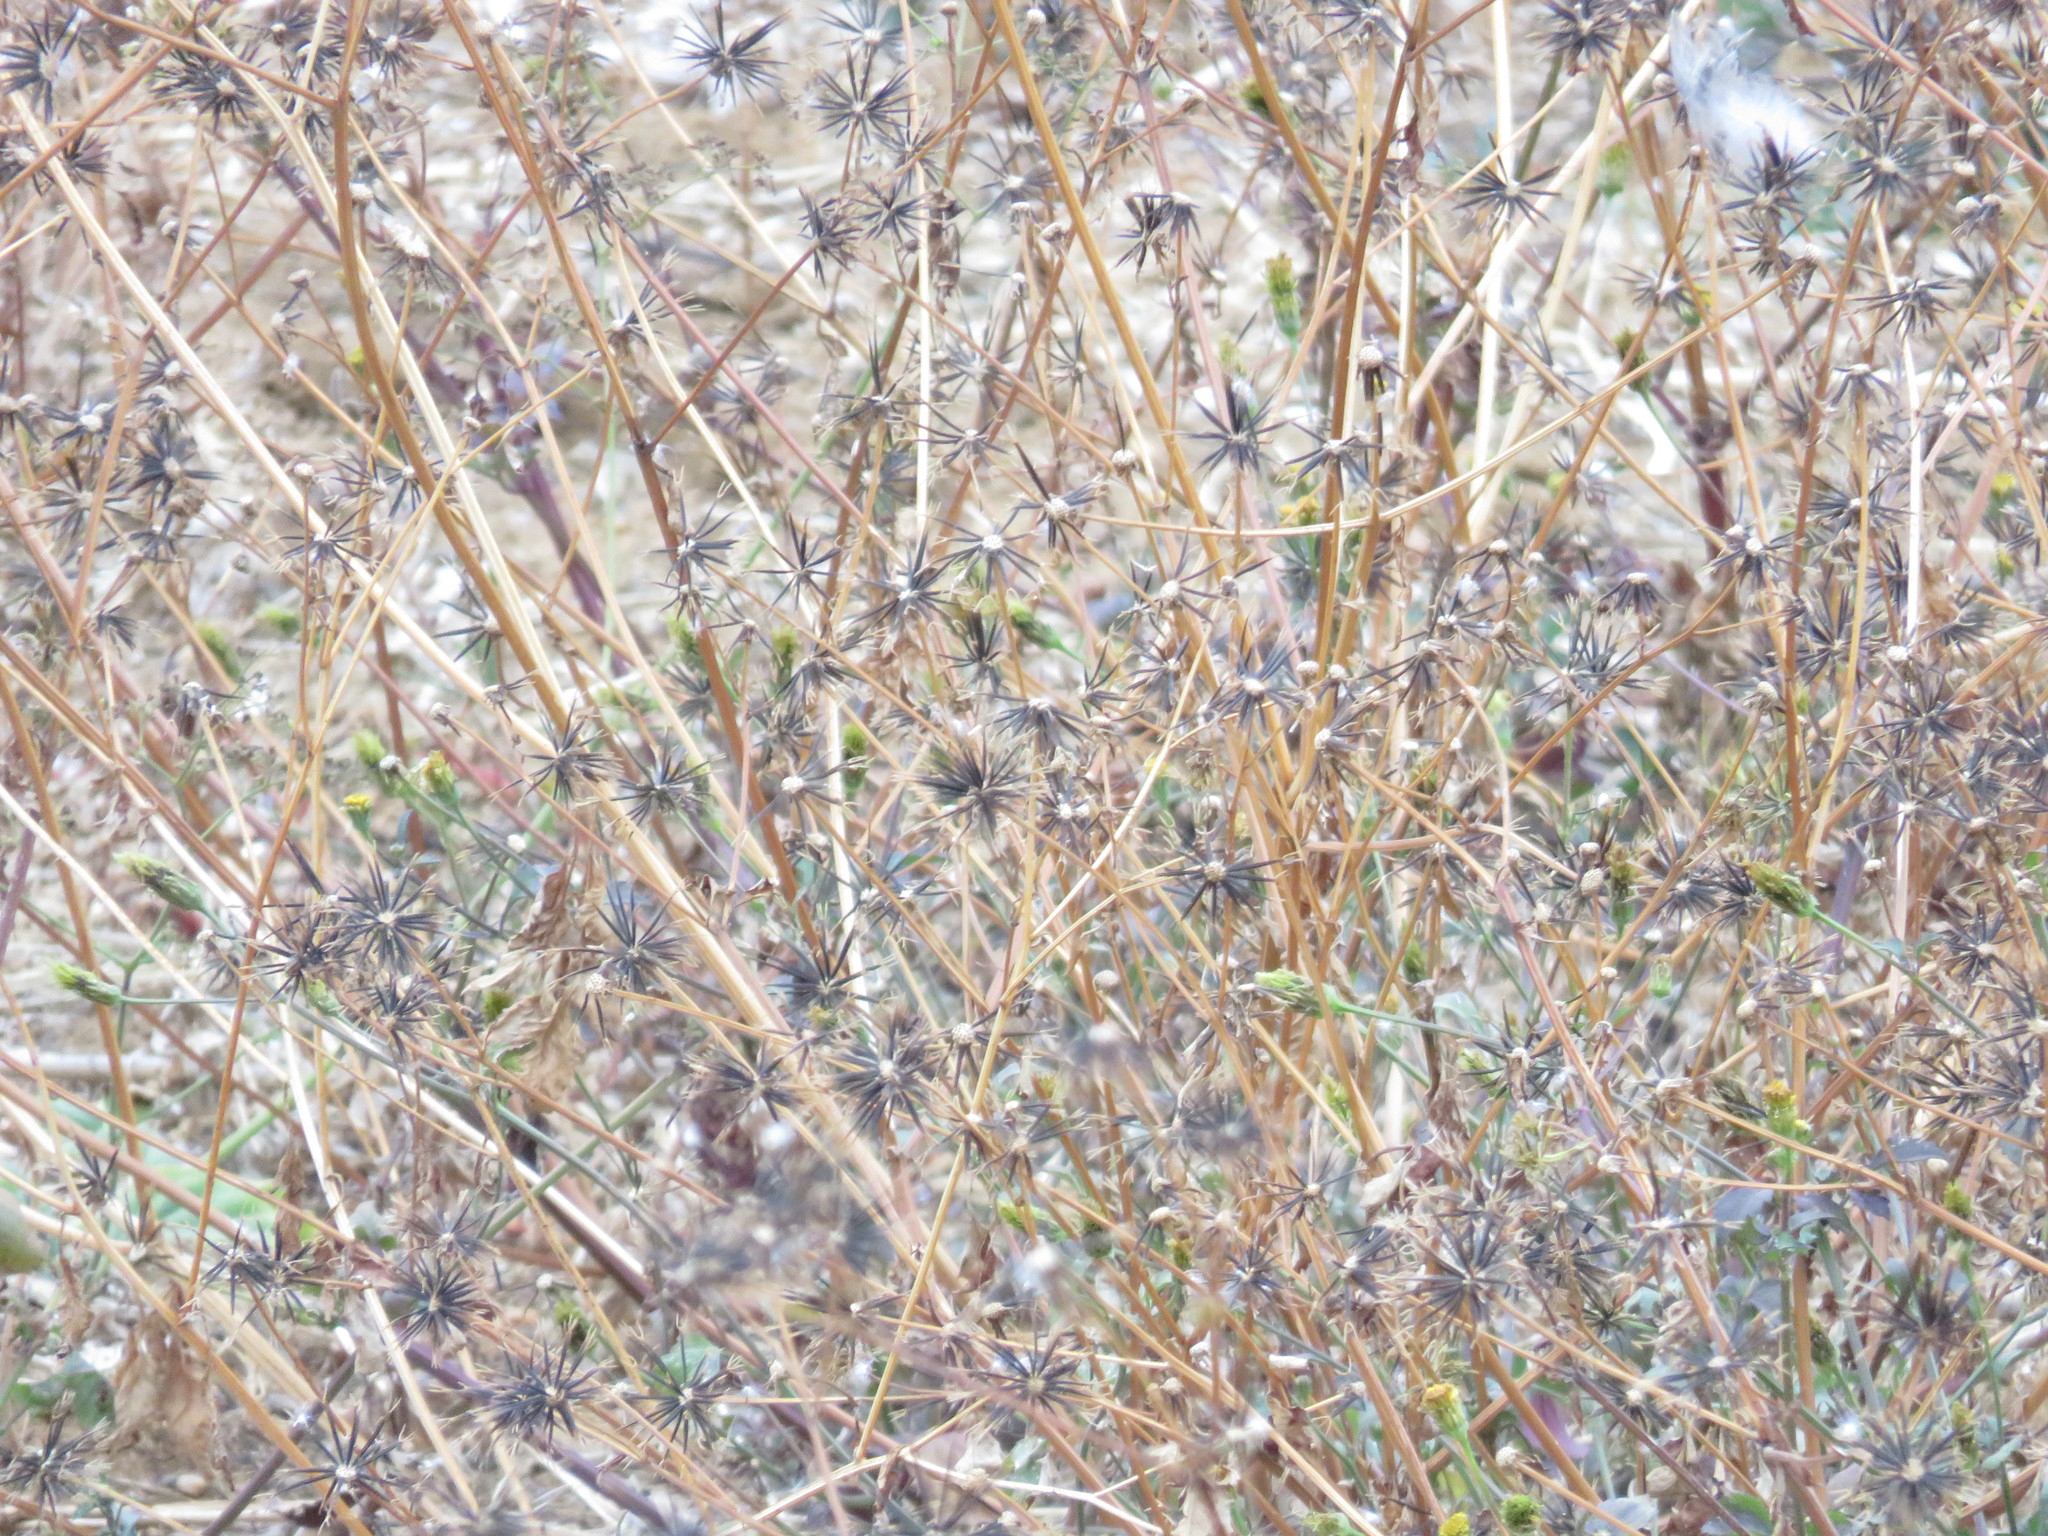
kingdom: Plantae
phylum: Tracheophyta
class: Magnoliopsida
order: Asterales
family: Asteraceae
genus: Bidens
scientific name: Bidens pilosa
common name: Black-jack
